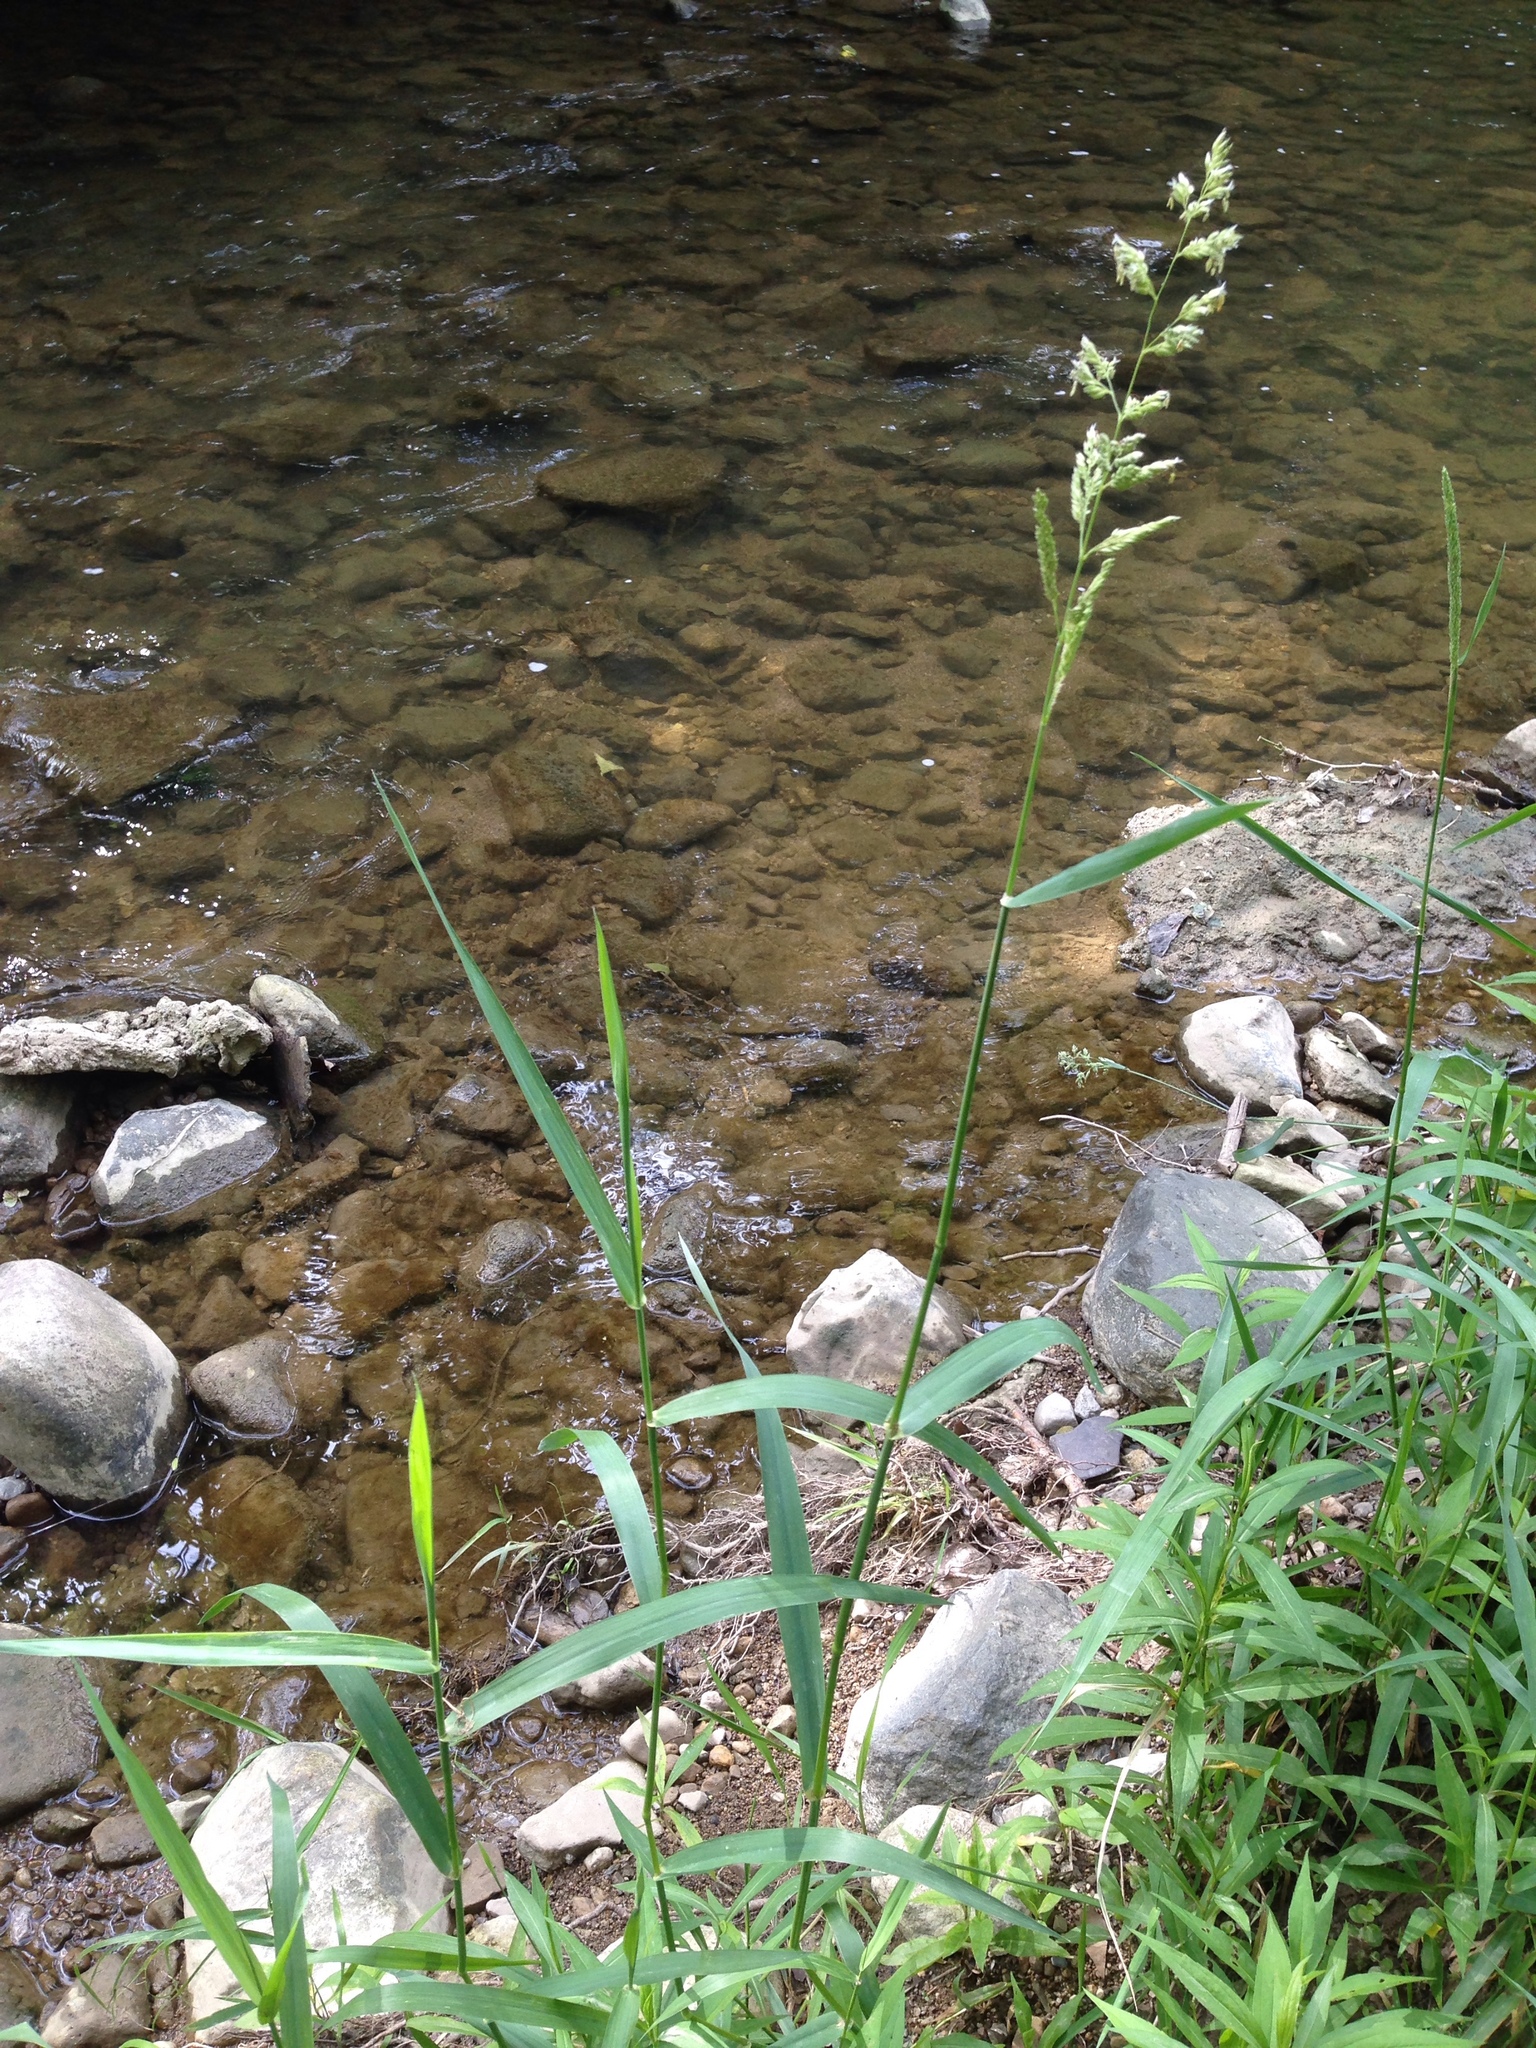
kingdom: Plantae
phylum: Tracheophyta
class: Liliopsida
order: Poales
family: Poaceae
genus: Phalaris
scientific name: Phalaris arundinacea
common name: Reed canary-grass
